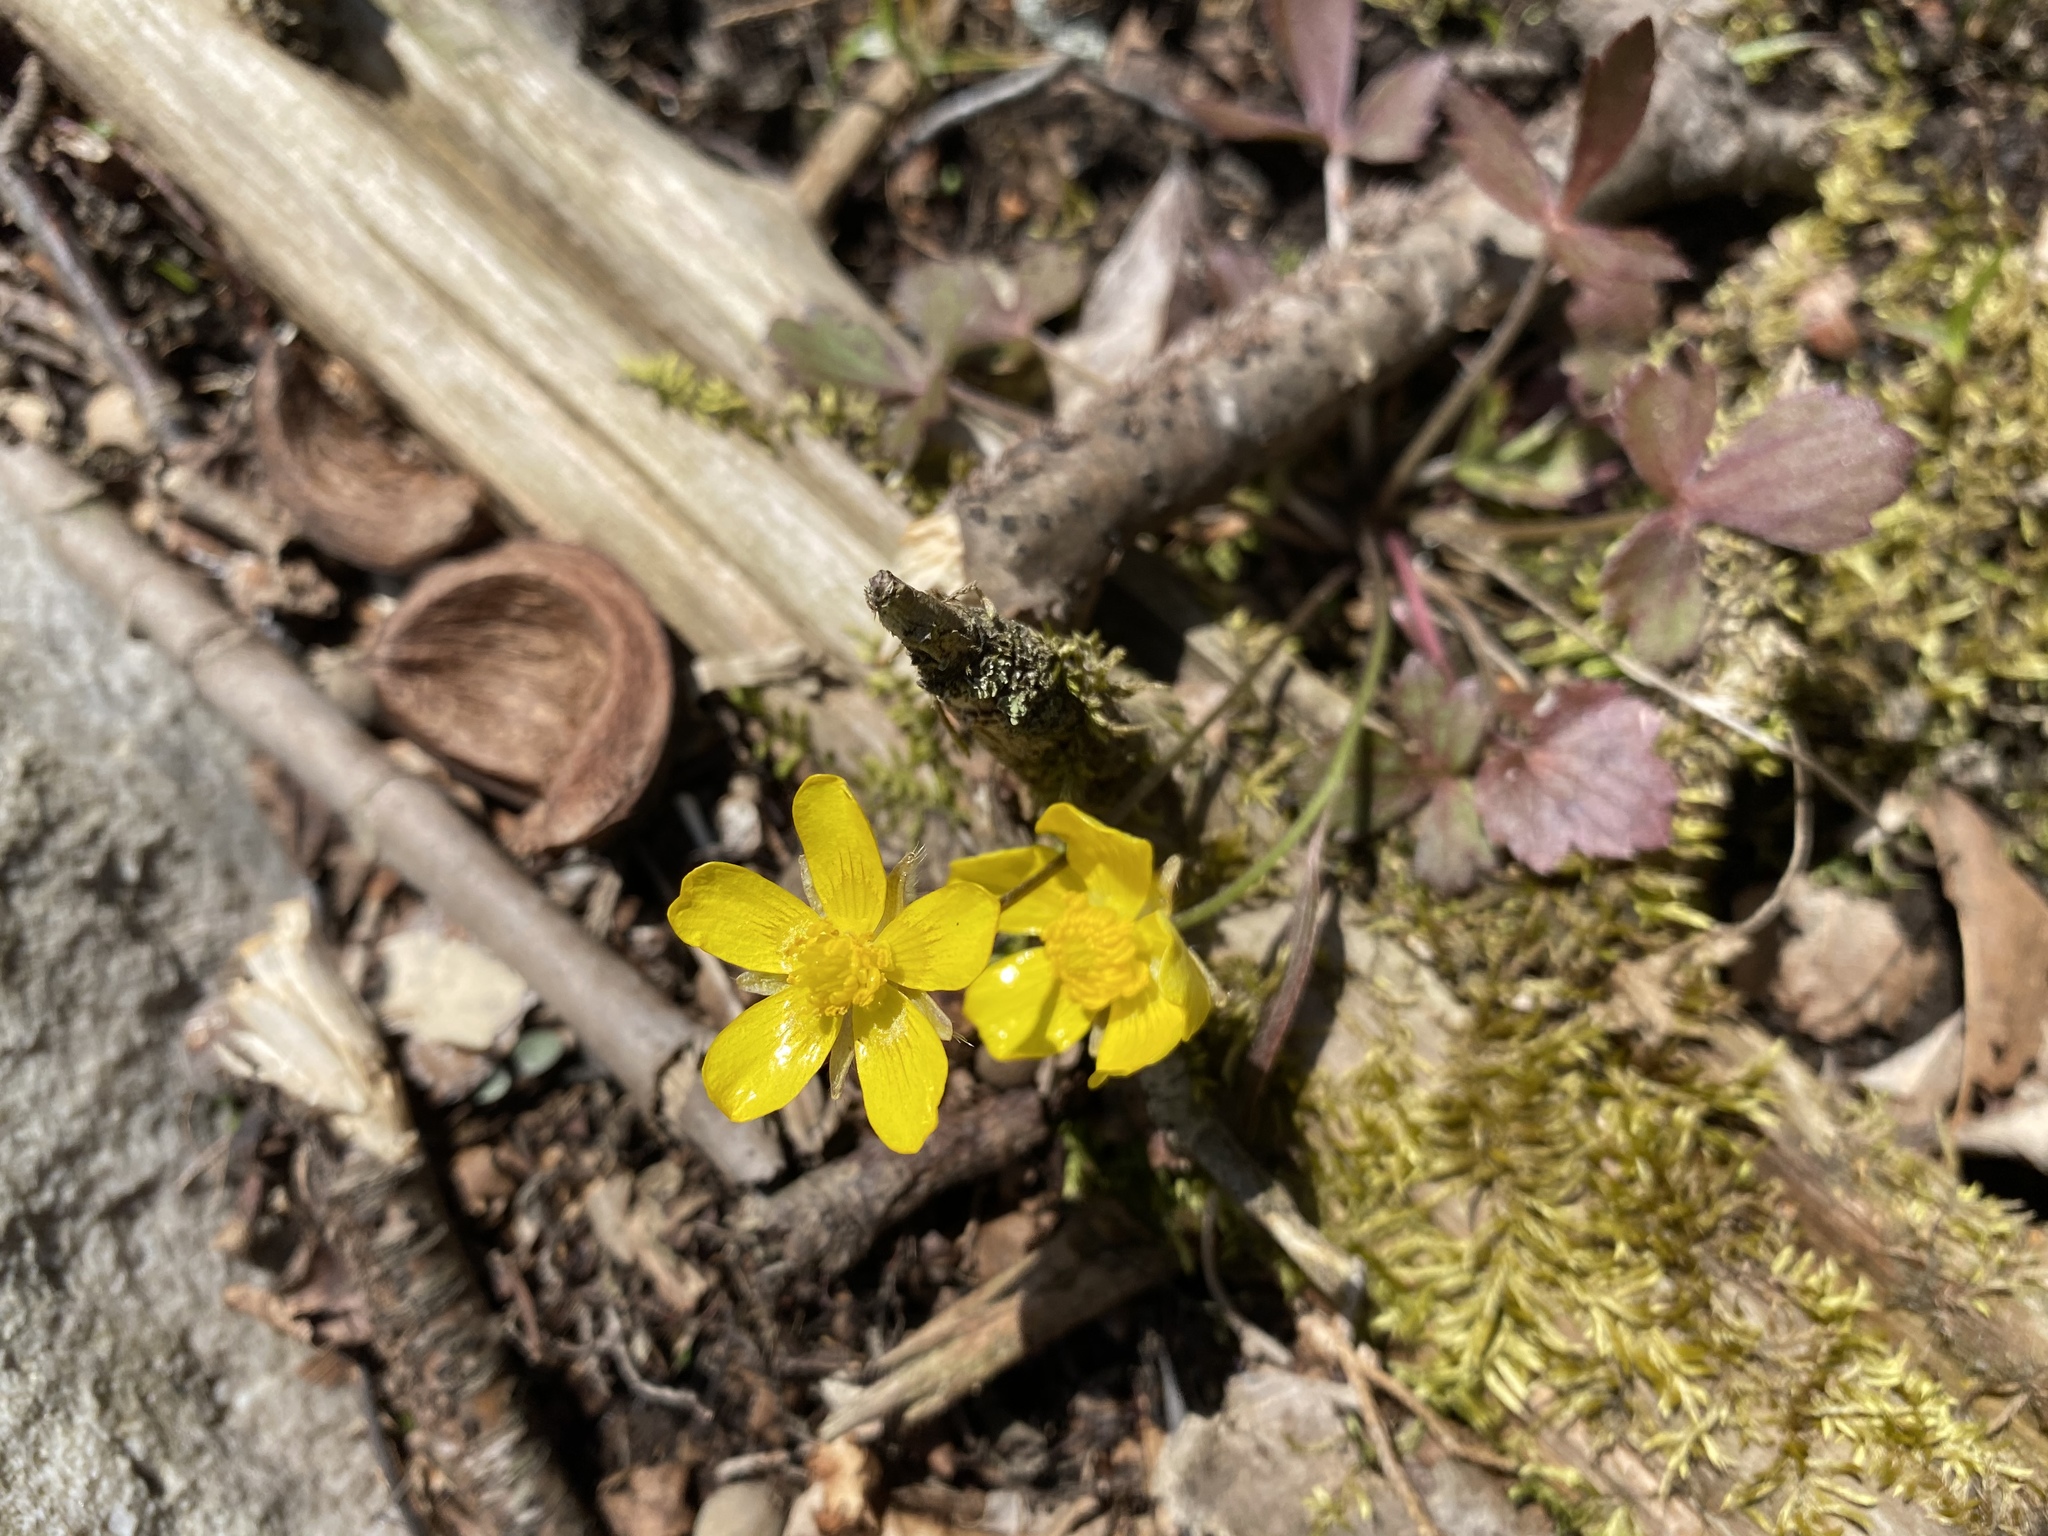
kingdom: Plantae
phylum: Tracheophyta
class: Magnoliopsida
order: Ranunculales
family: Ranunculaceae
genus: Ranunculus
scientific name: Ranunculus fascicularis
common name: Early buttercup
